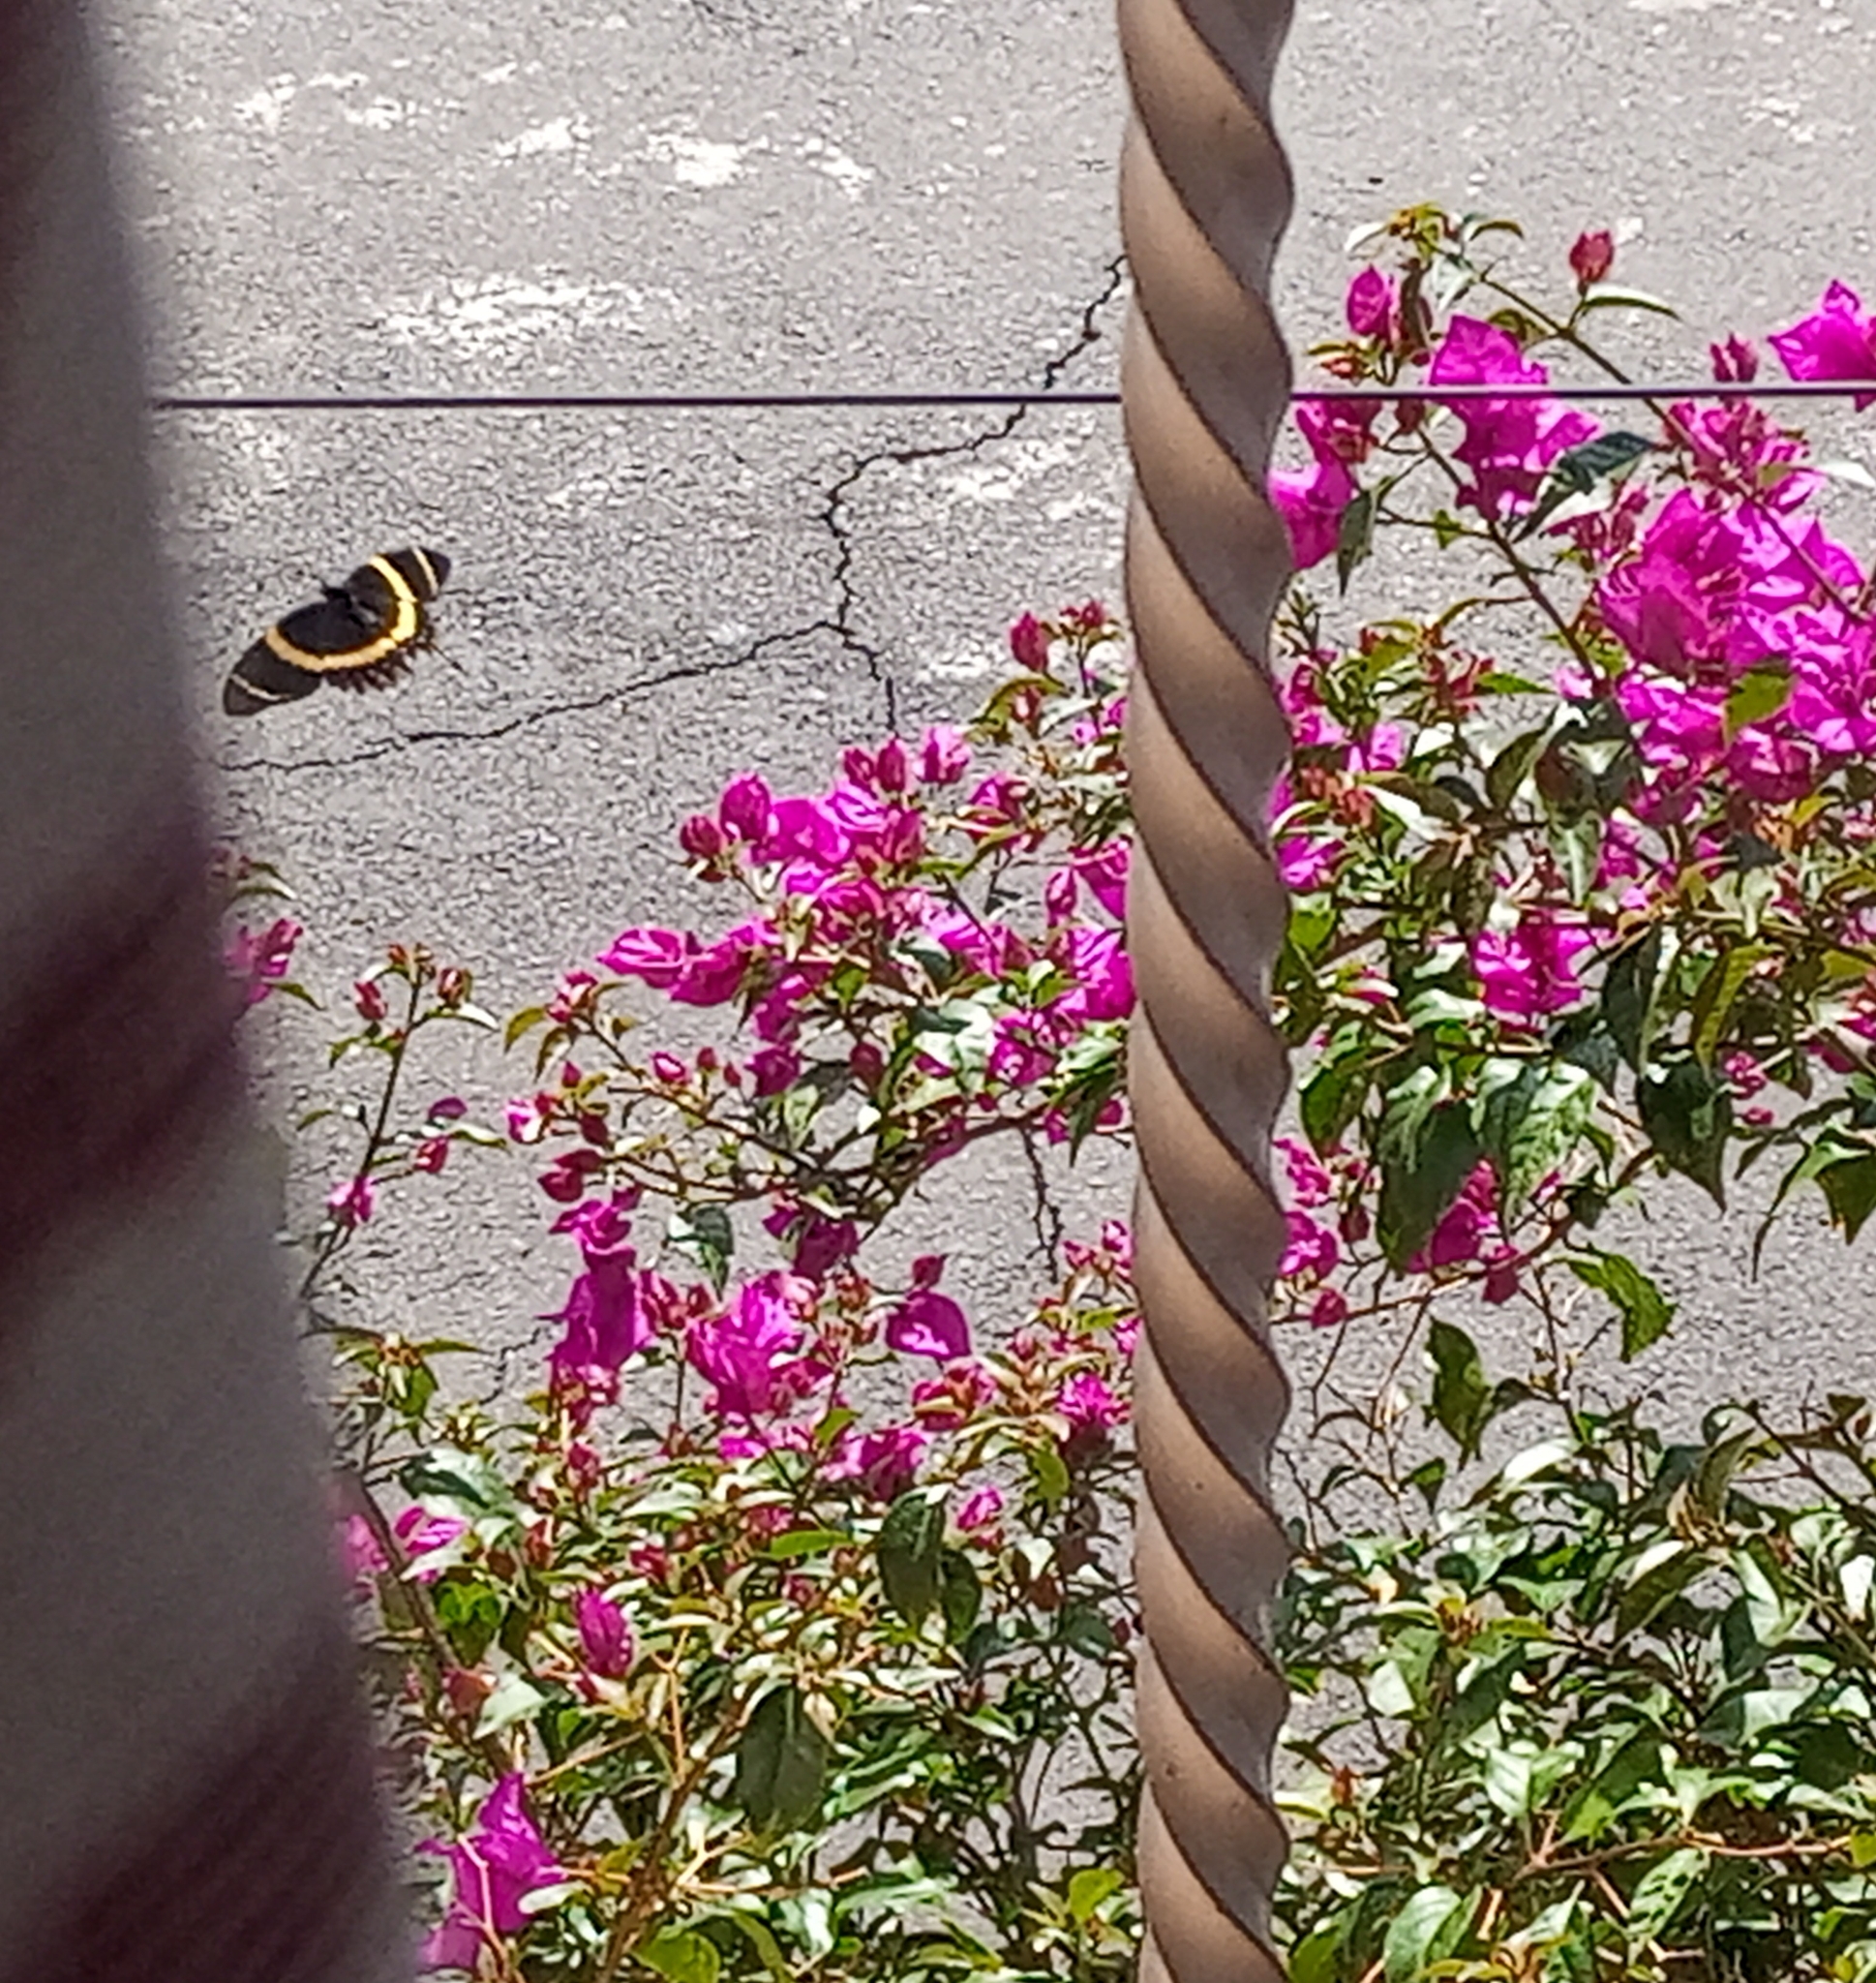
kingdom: Animalia
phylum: Arthropoda
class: Insecta
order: Lepidoptera
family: Papilionidae
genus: Papilio
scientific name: Papilio garamas
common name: Magnificent swallowtail
